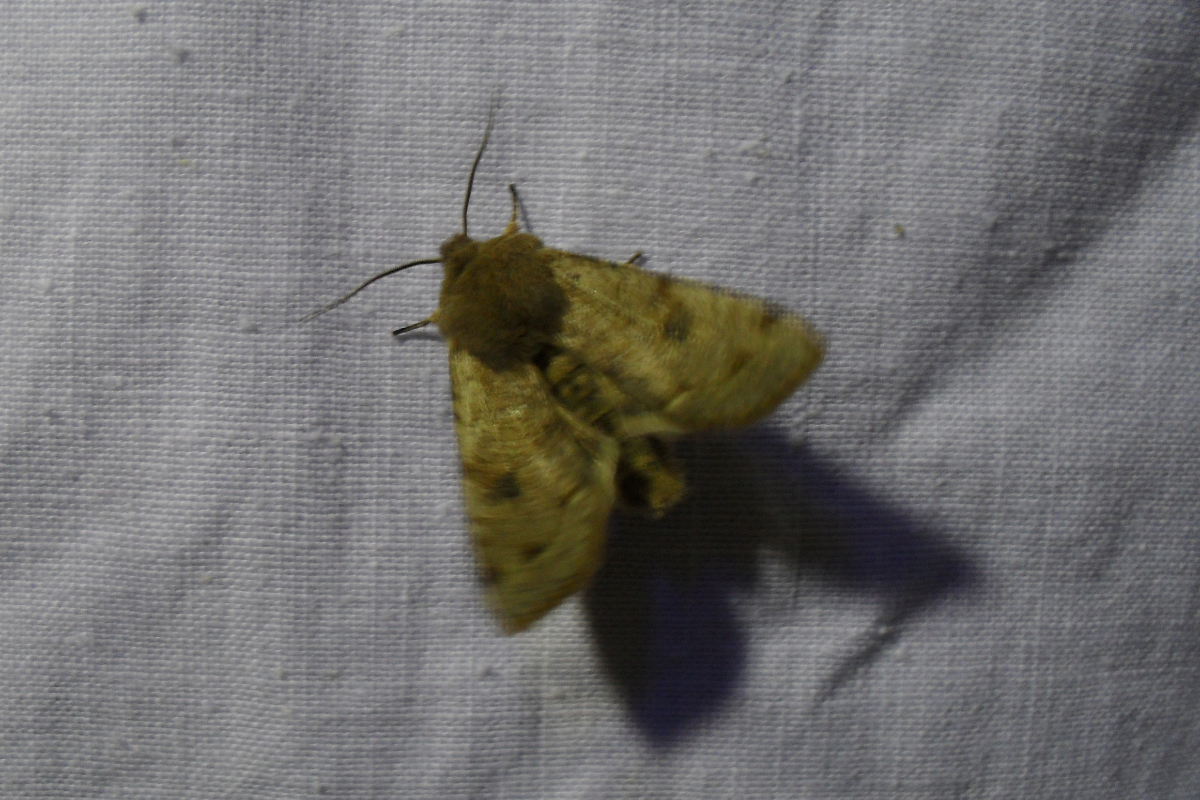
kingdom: Animalia
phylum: Arthropoda
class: Insecta
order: Lepidoptera
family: Noctuidae
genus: Orthosia
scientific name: Orthosia incerta
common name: Clouded drab
